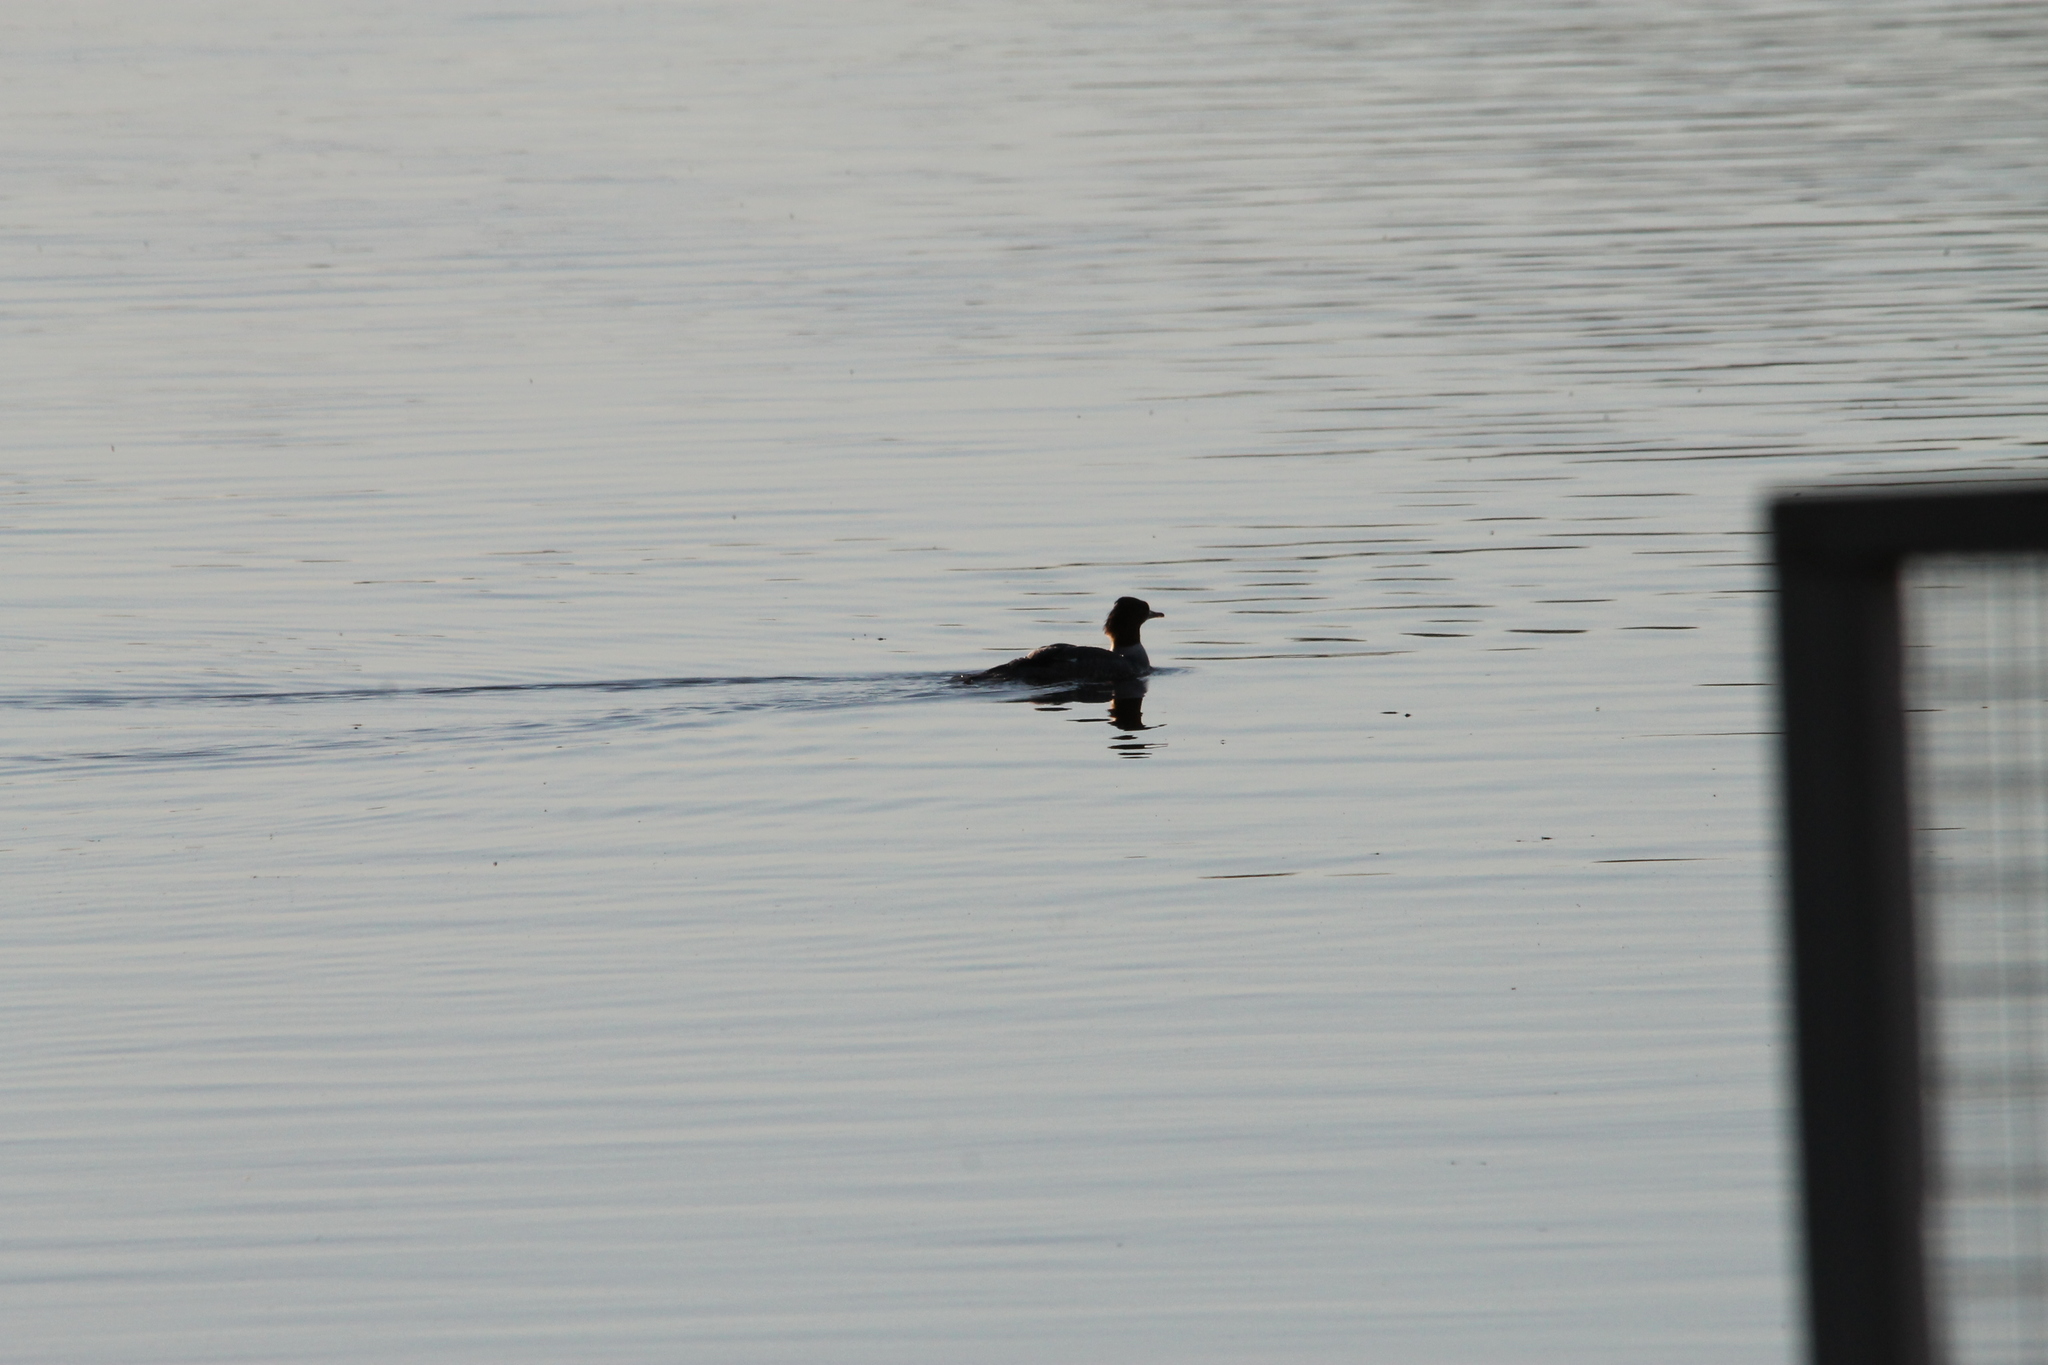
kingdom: Animalia
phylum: Chordata
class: Aves
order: Anseriformes
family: Anatidae
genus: Mergus
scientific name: Mergus merganser
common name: Common merganser
